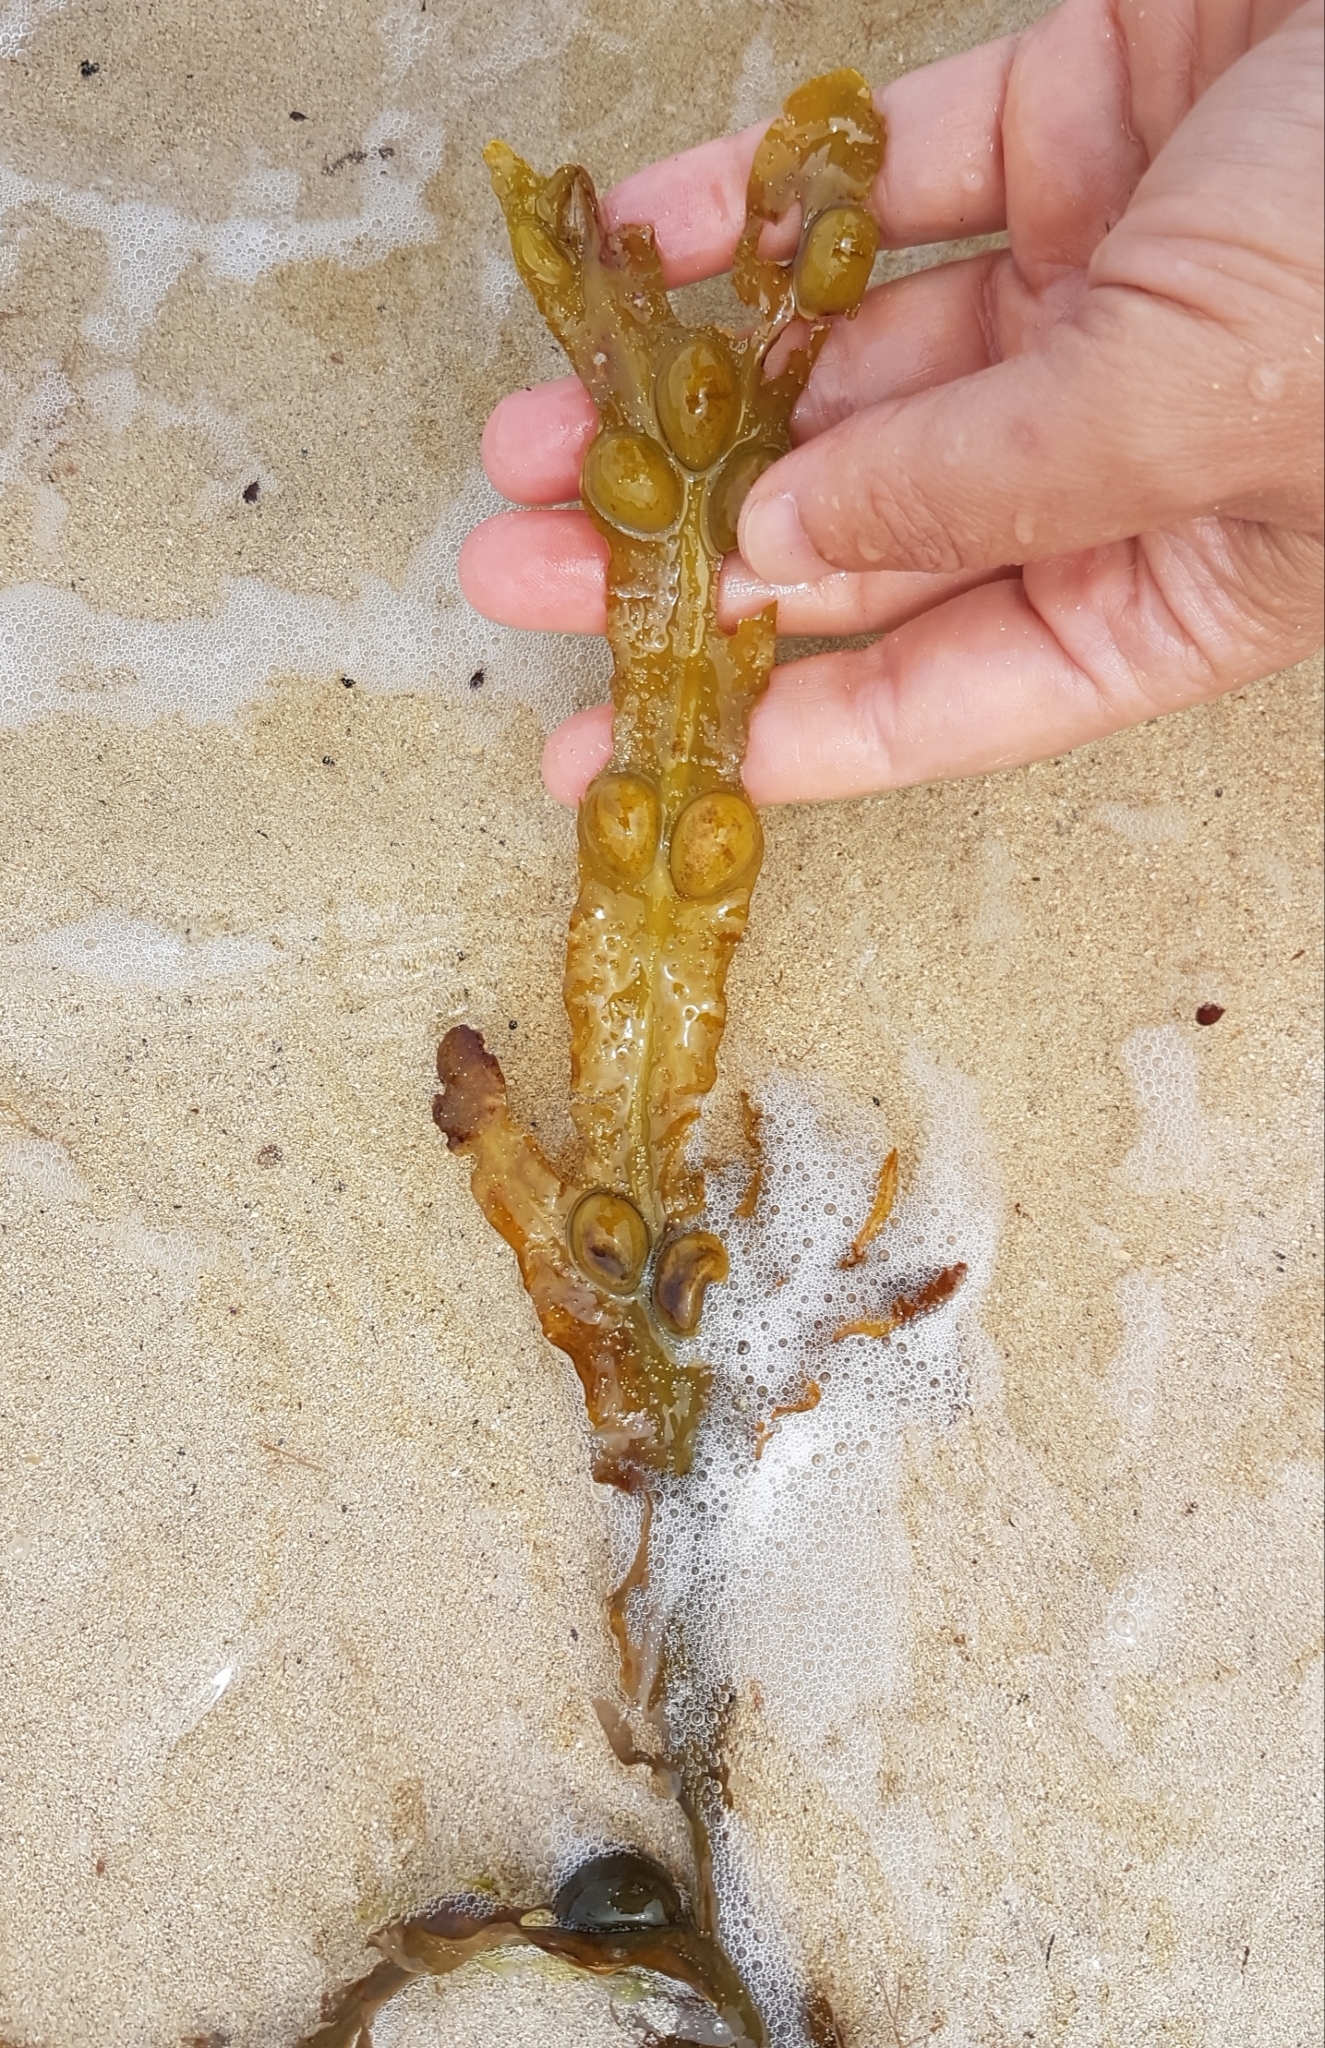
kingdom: Chromista
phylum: Ochrophyta
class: Phaeophyceae
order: Fucales
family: Fucaceae
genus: Fucus
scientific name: Fucus vesiculosus
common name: Bladder wrack
